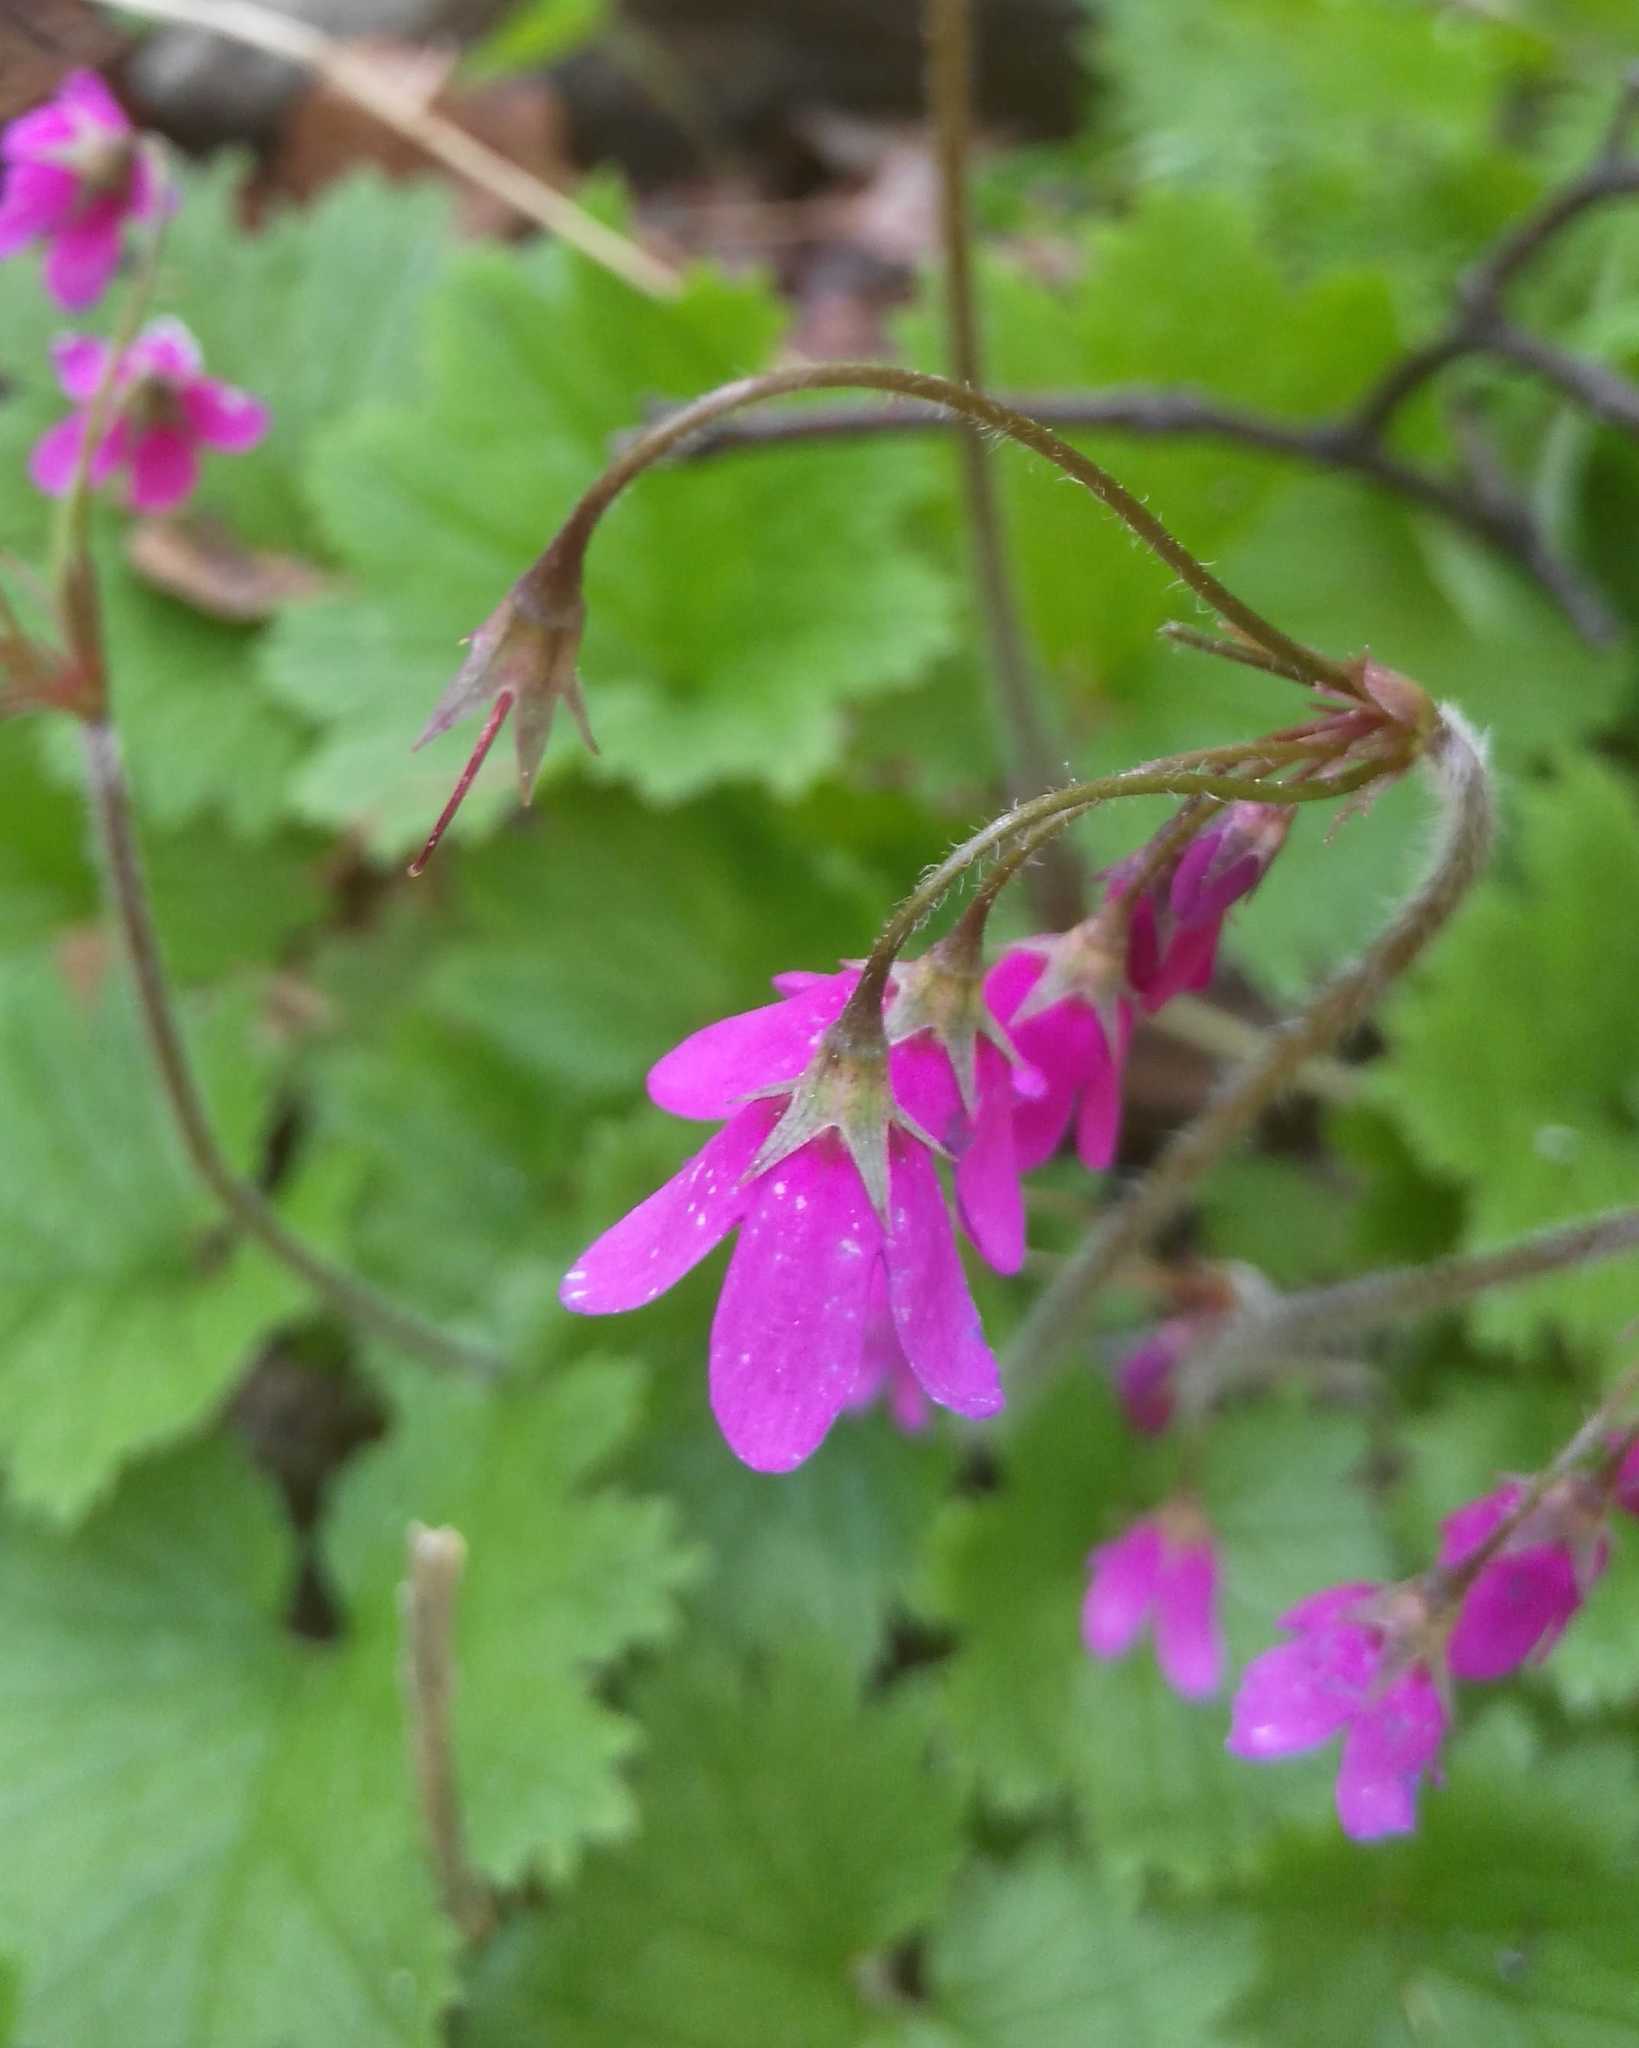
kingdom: Plantae
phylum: Tracheophyta
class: Magnoliopsida
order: Ericales
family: Primulaceae
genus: Primula
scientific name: Primula matthioli
